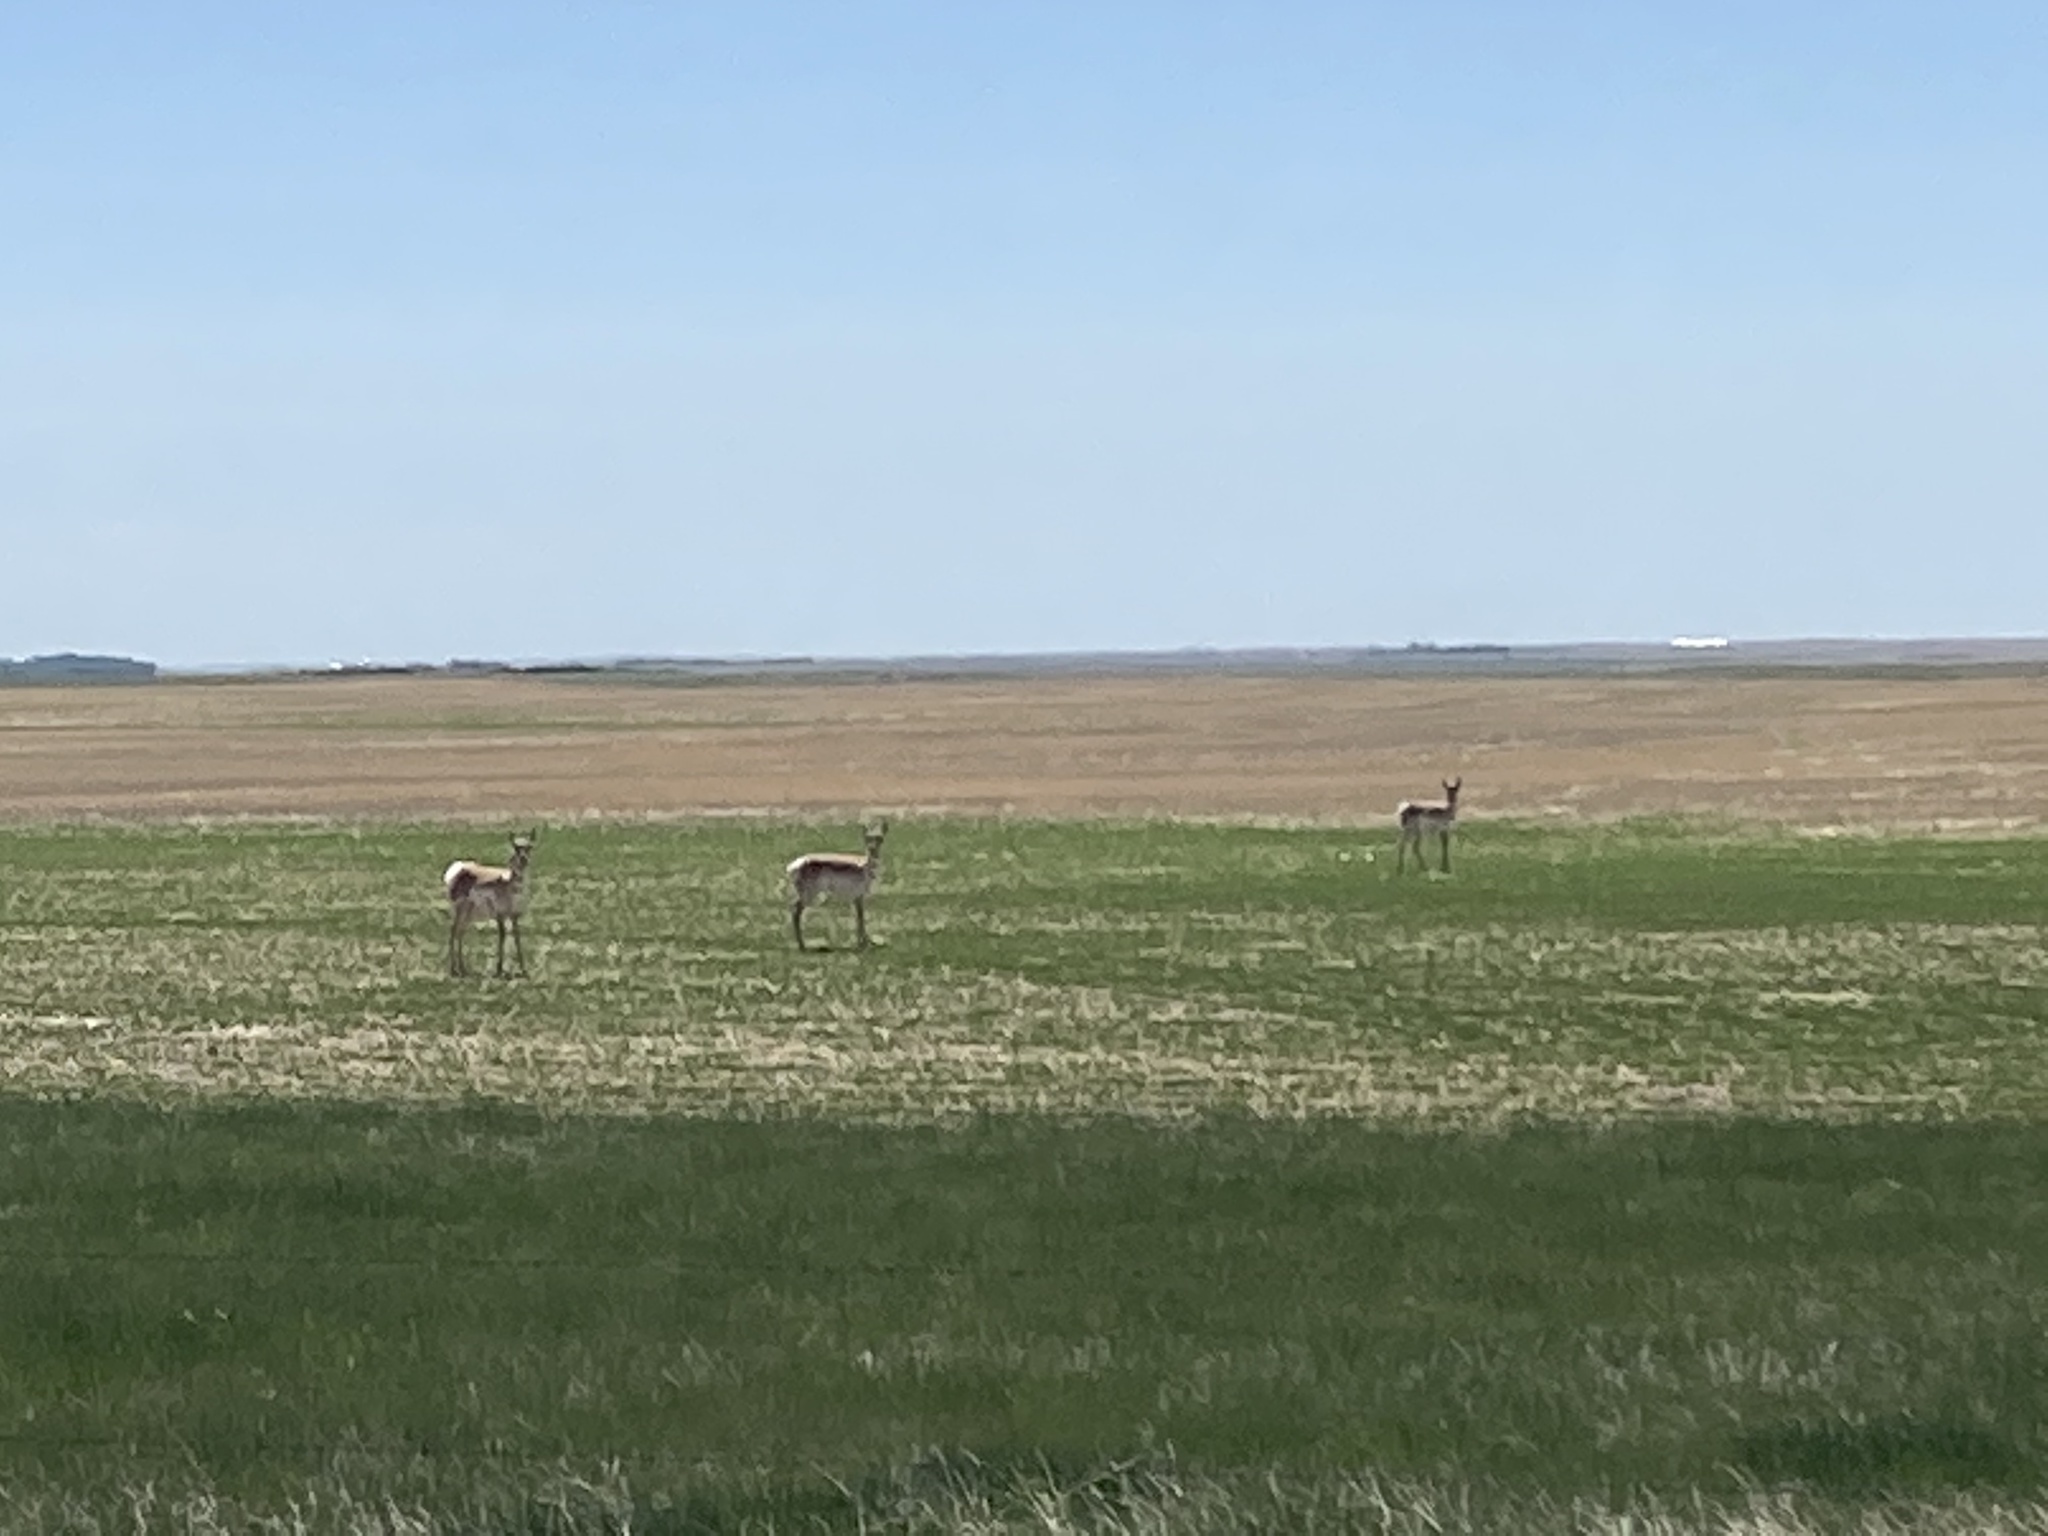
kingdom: Animalia
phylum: Chordata
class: Mammalia
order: Artiodactyla
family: Antilocapridae
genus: Antilocapra
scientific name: Antilocapra americana
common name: Pronghorn
